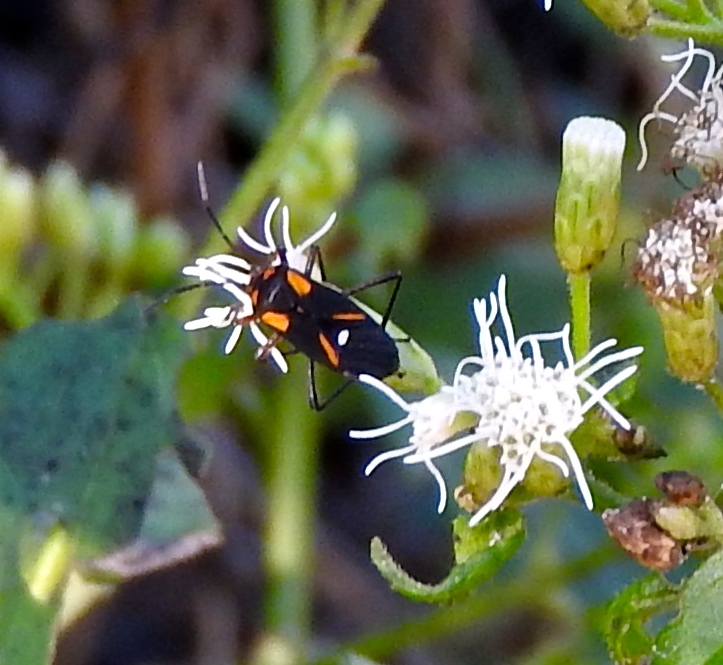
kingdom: Animalia
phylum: Arthropoda
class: Insecta
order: Hemiptera
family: Lygaeidae
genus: Oncopeltus
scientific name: Oncopeltus sexmaculatus
